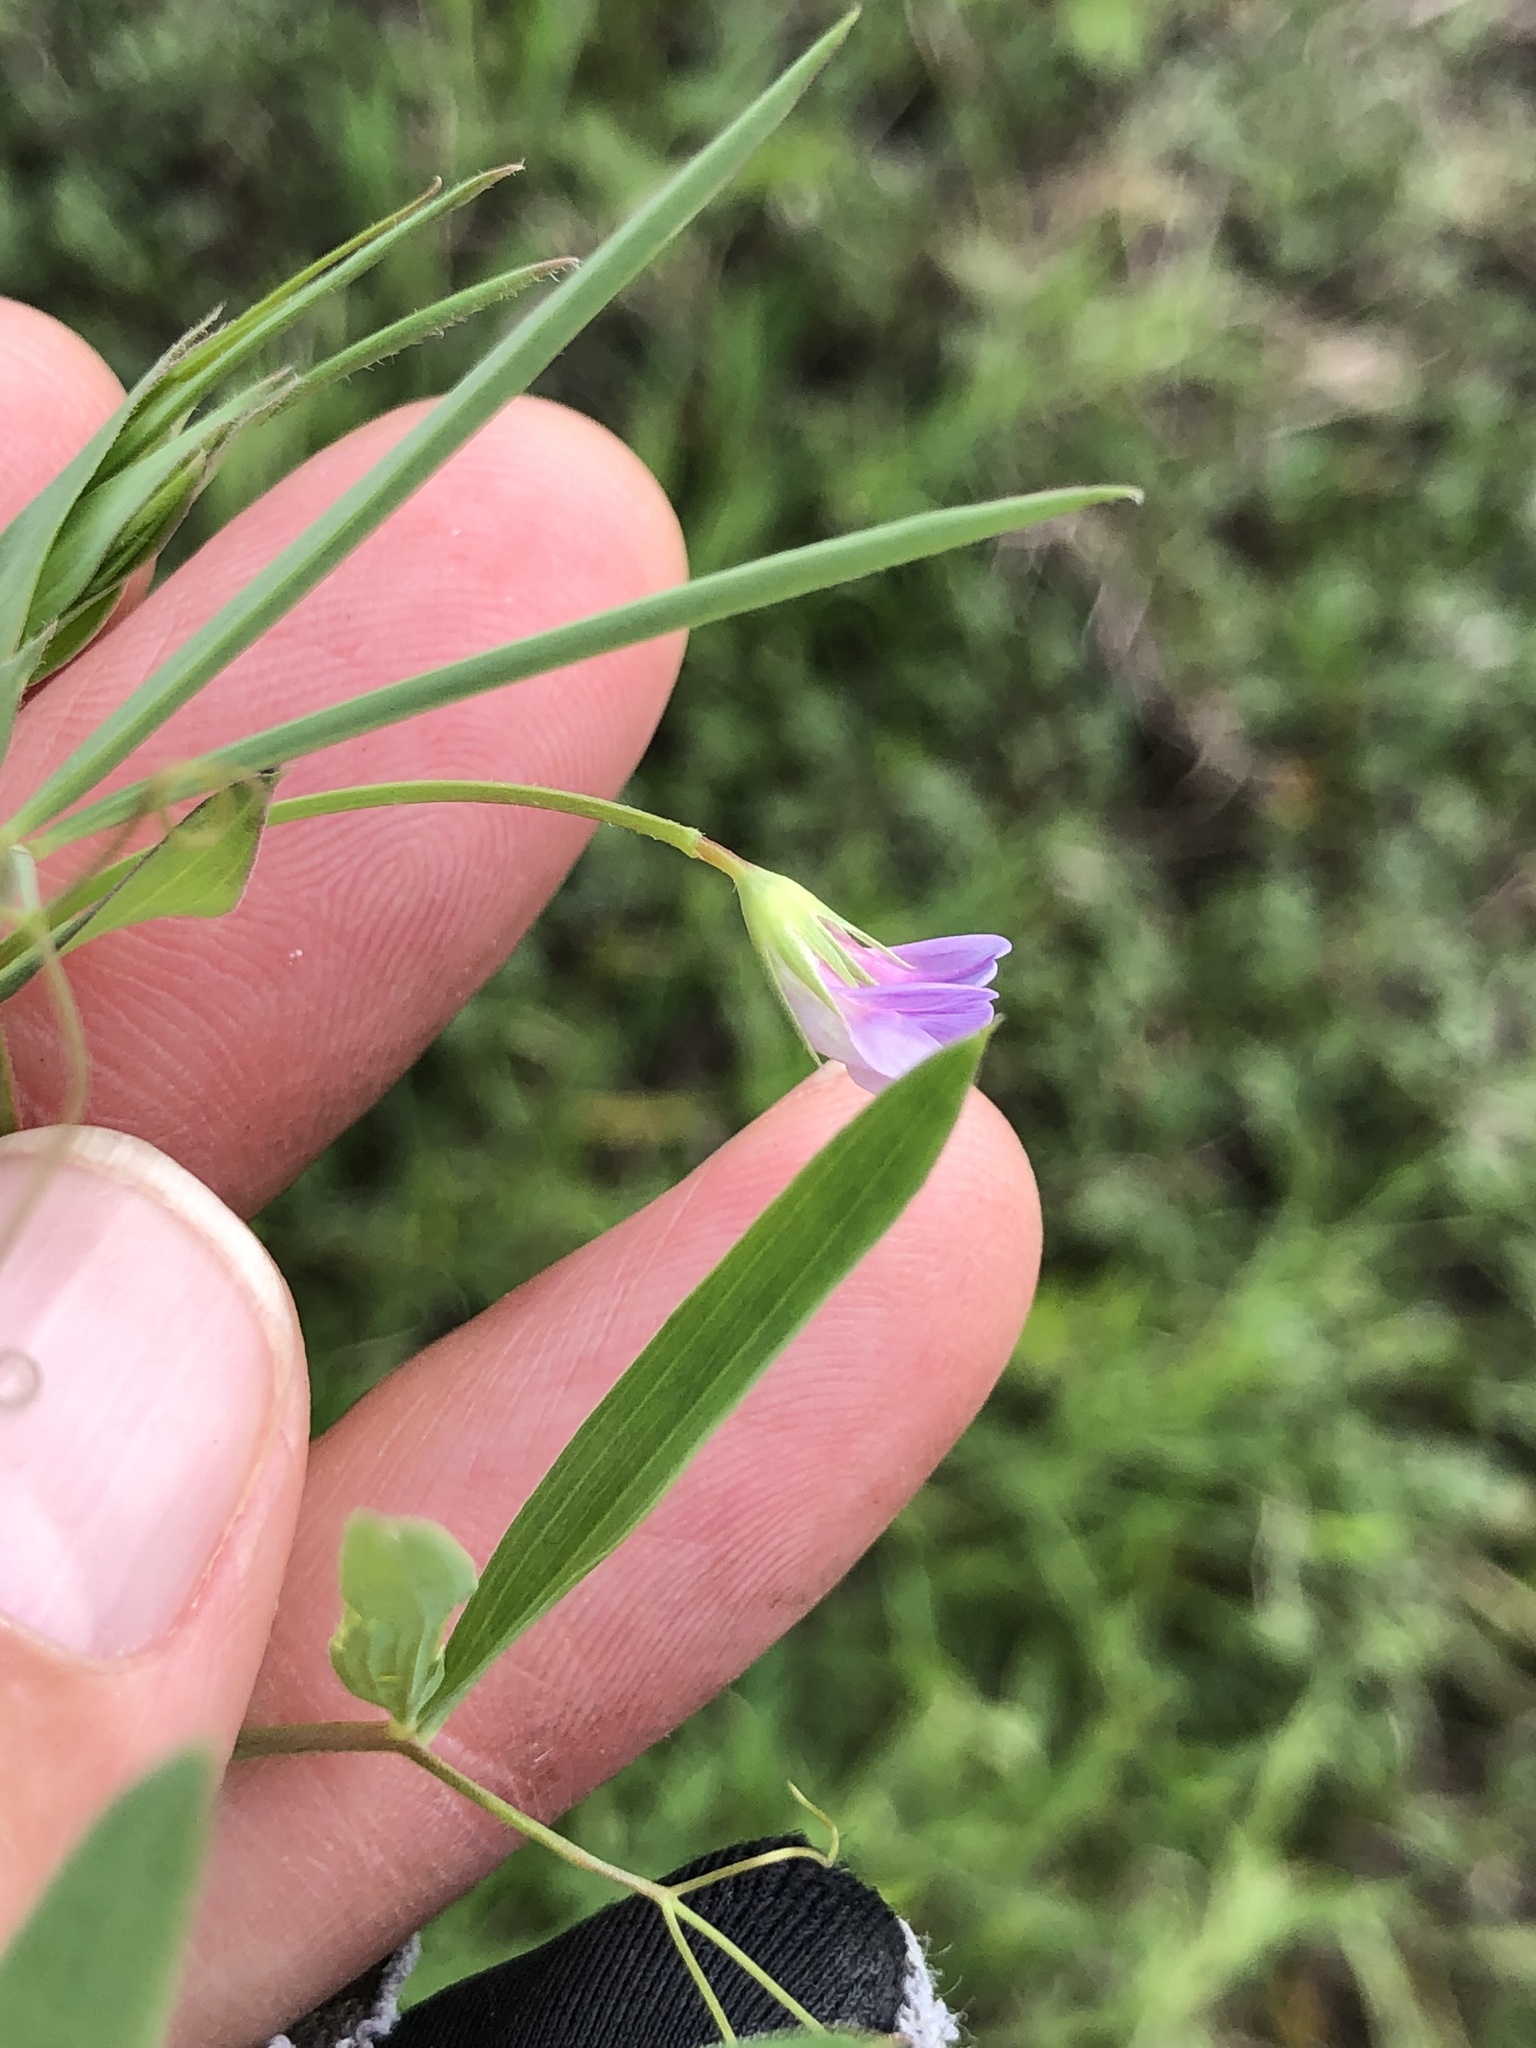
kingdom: Plantae
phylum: Tracheophyta
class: Magnoliopsida
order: Fabales
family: Fabaceae
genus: Lathyrus
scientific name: Lathyrus pusillus
